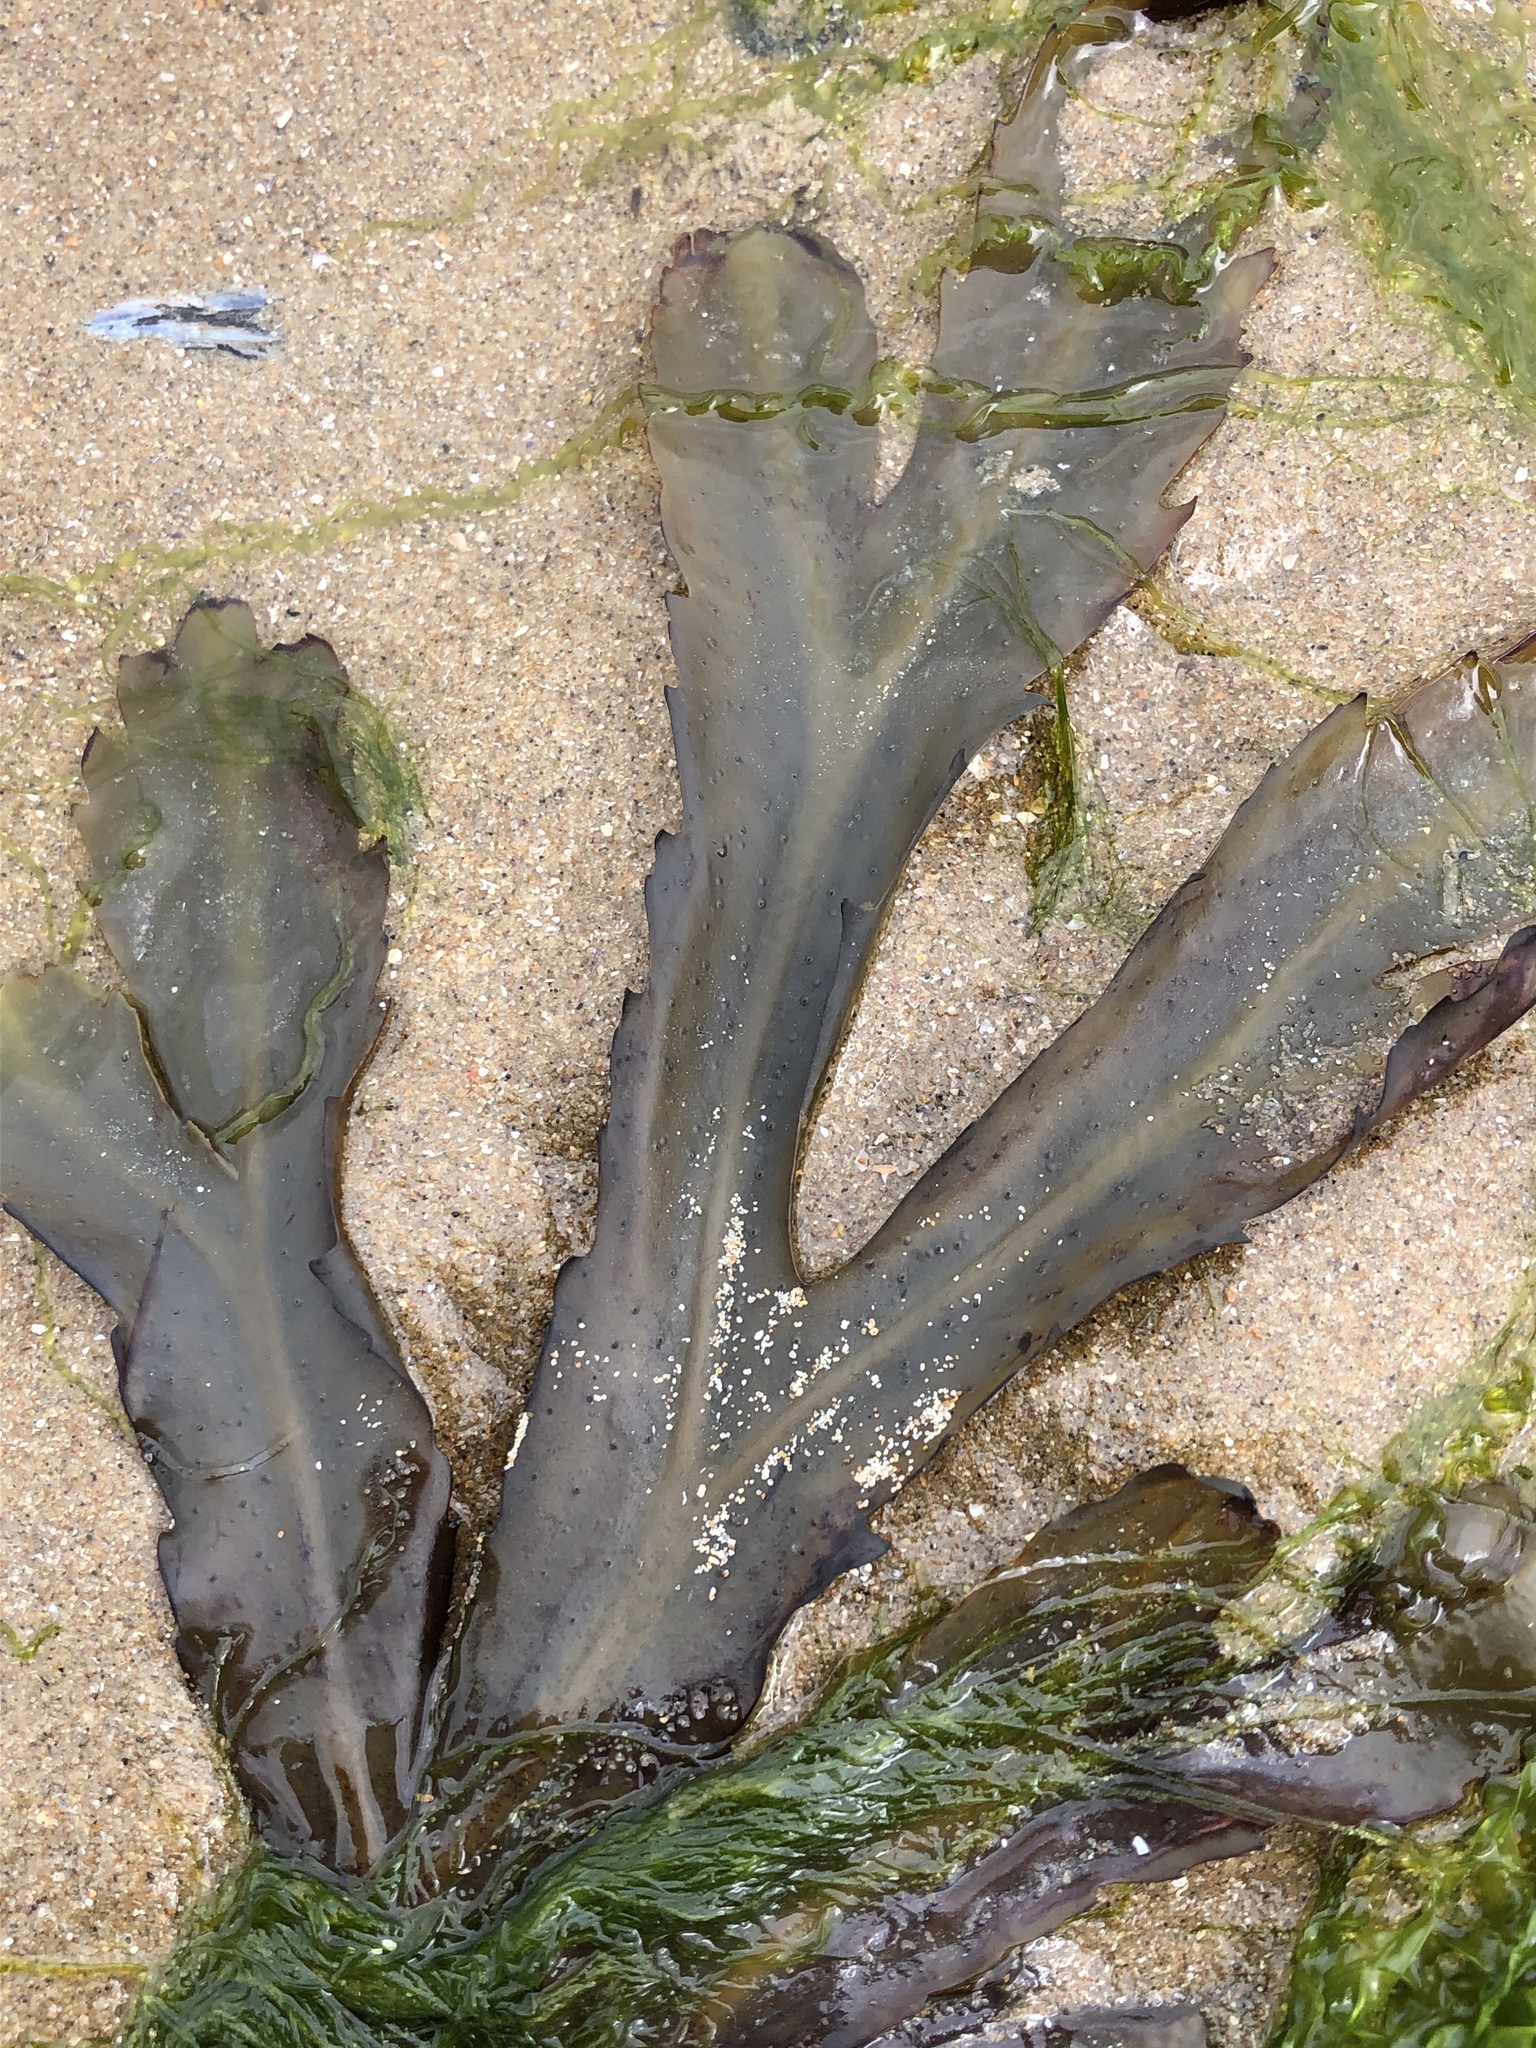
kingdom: Chromista
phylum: Ochrophyta
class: Phaeophyceae
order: Fucales
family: Fucaceae
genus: Fucus
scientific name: Fucus serratus
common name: Toothed wrack
